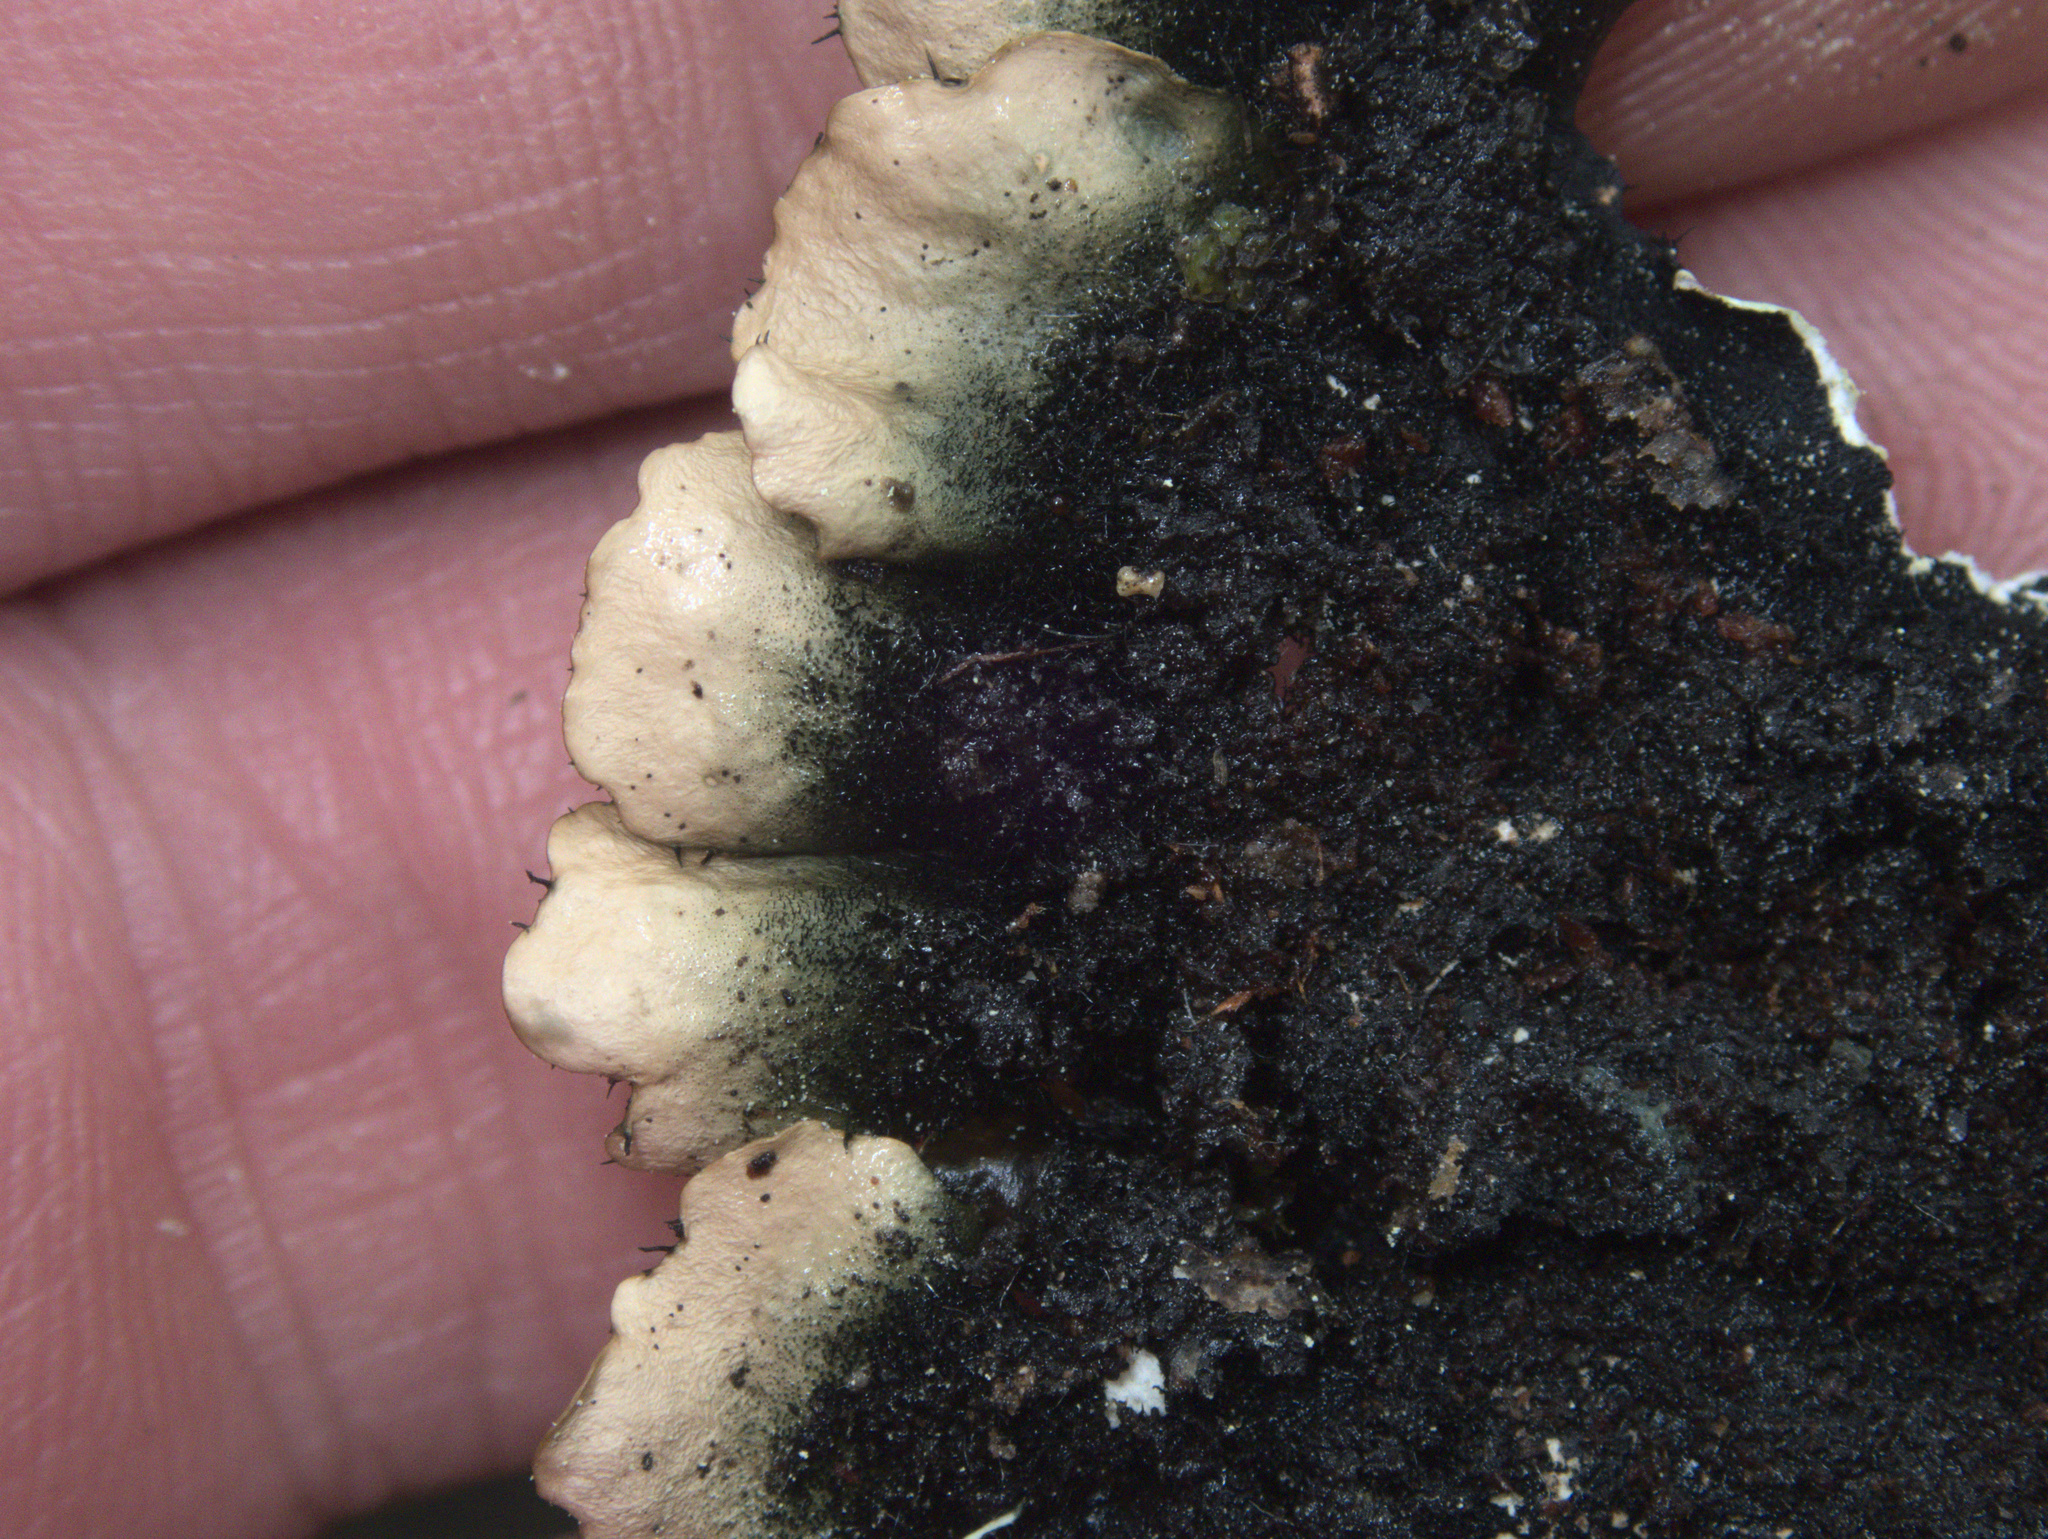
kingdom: Fungi
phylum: Ascomycota
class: Lecanoromycetes
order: Lecanorales
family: Parmeliaceae
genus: Parmotrema
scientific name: Parmotrema perlatum
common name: Black stone flower
